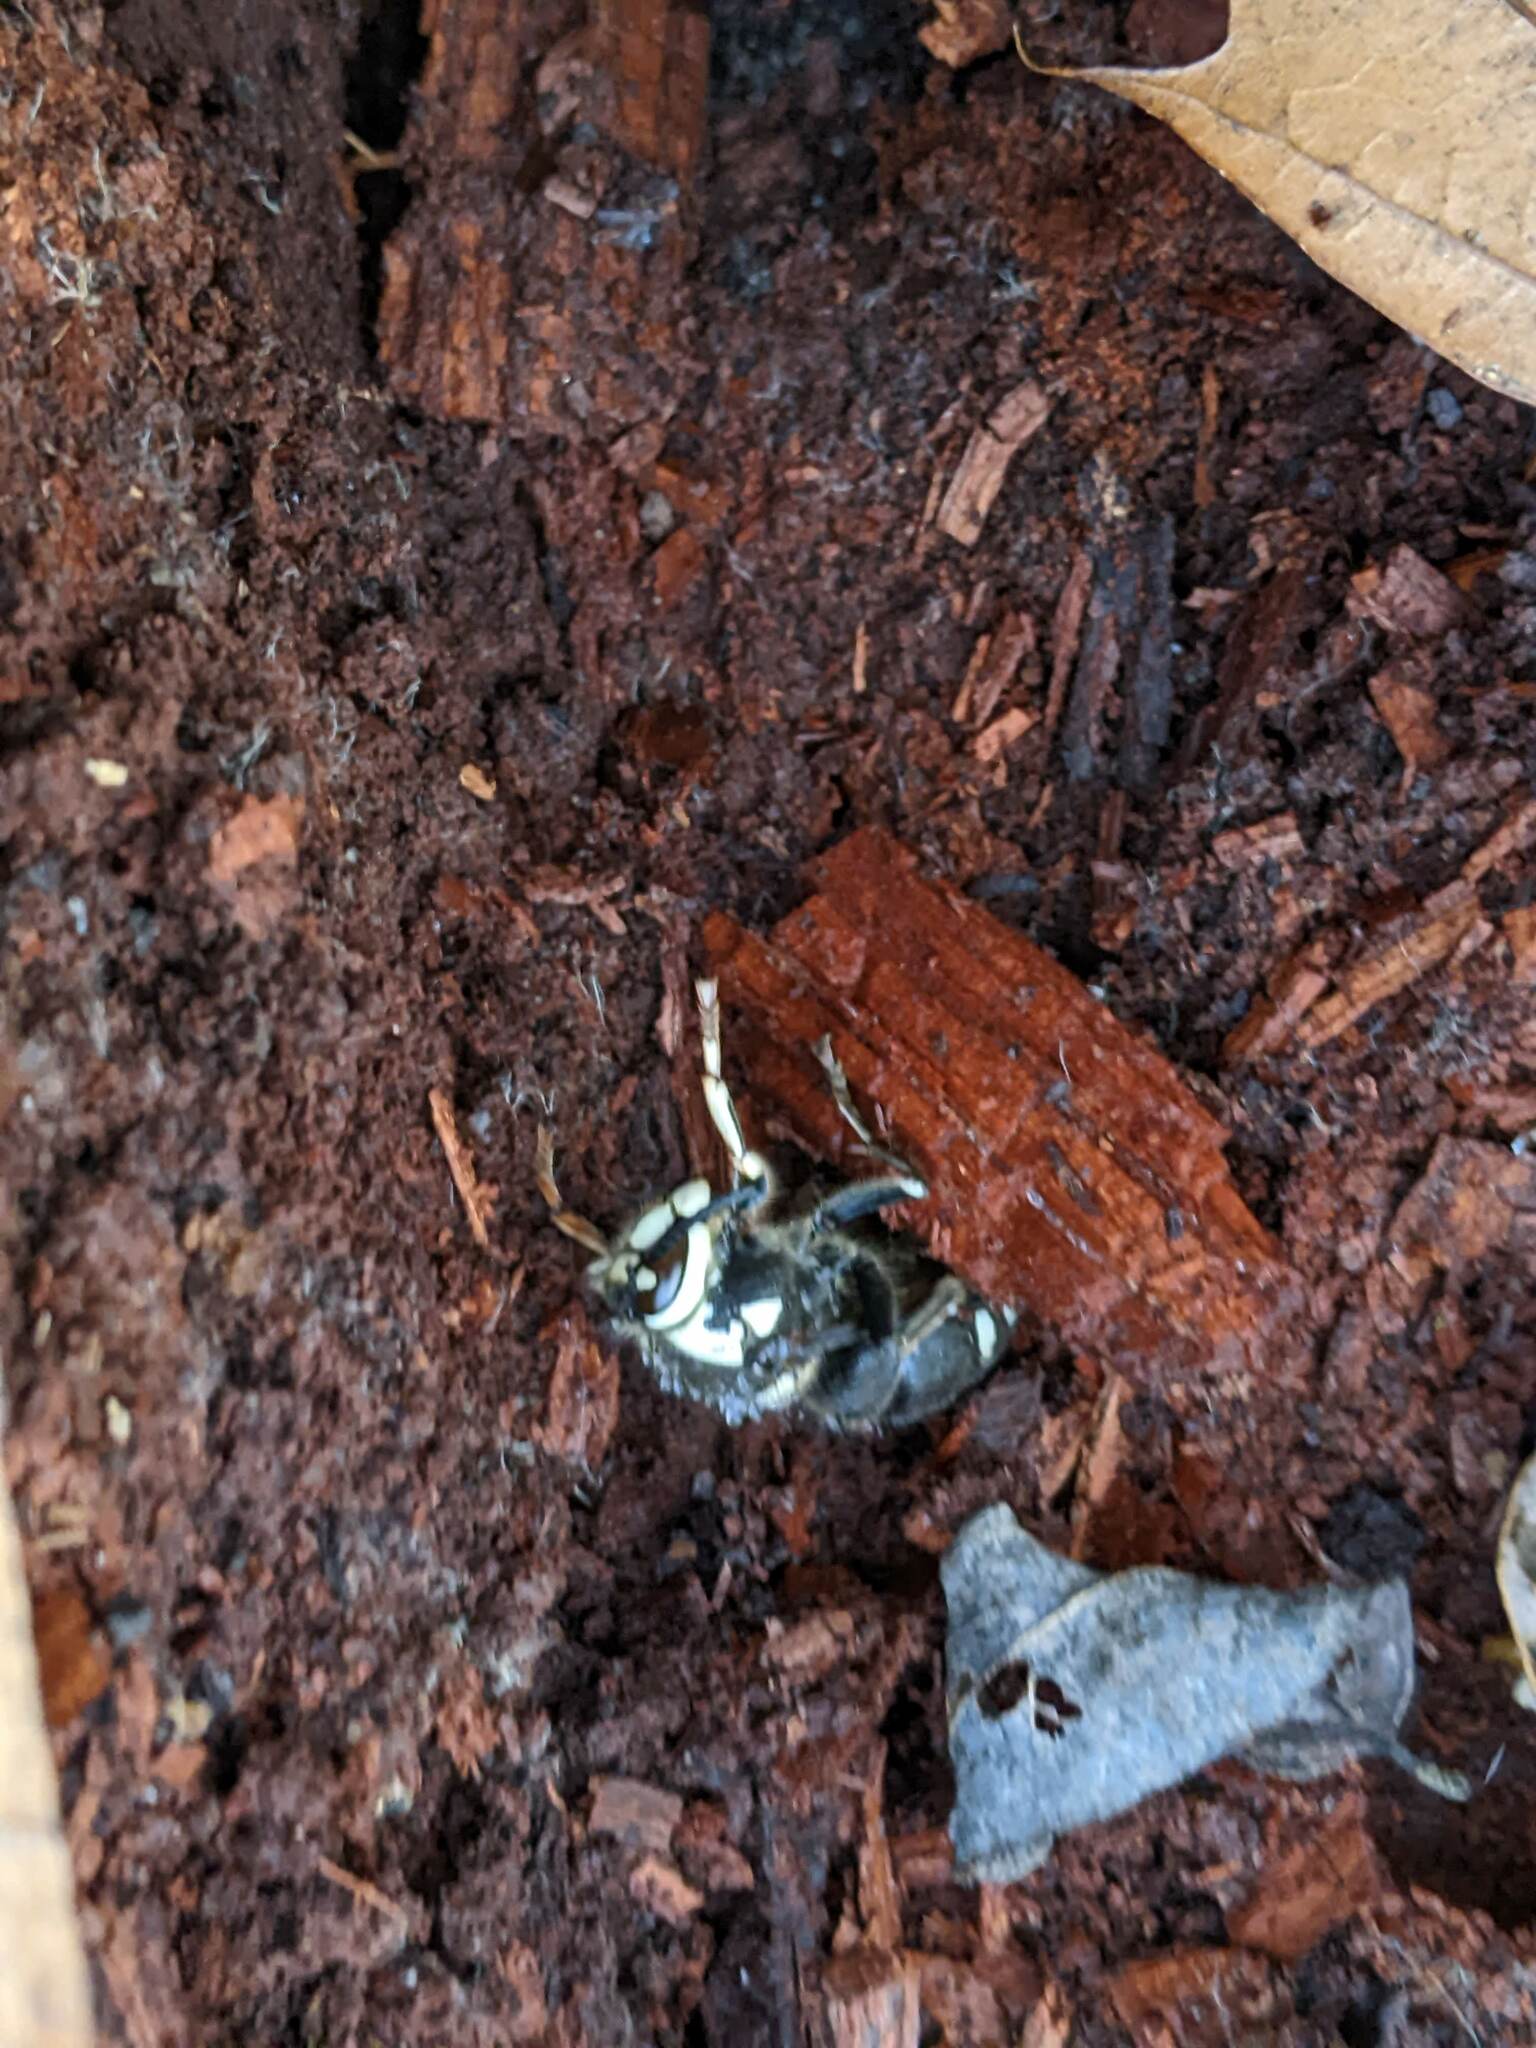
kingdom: Animalia
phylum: Arthropoda
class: Insecta
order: Hymenoptera
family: Vespidae
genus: Dolichovespula
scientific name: Dolichovespula maculata
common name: Bald-faced hornet
